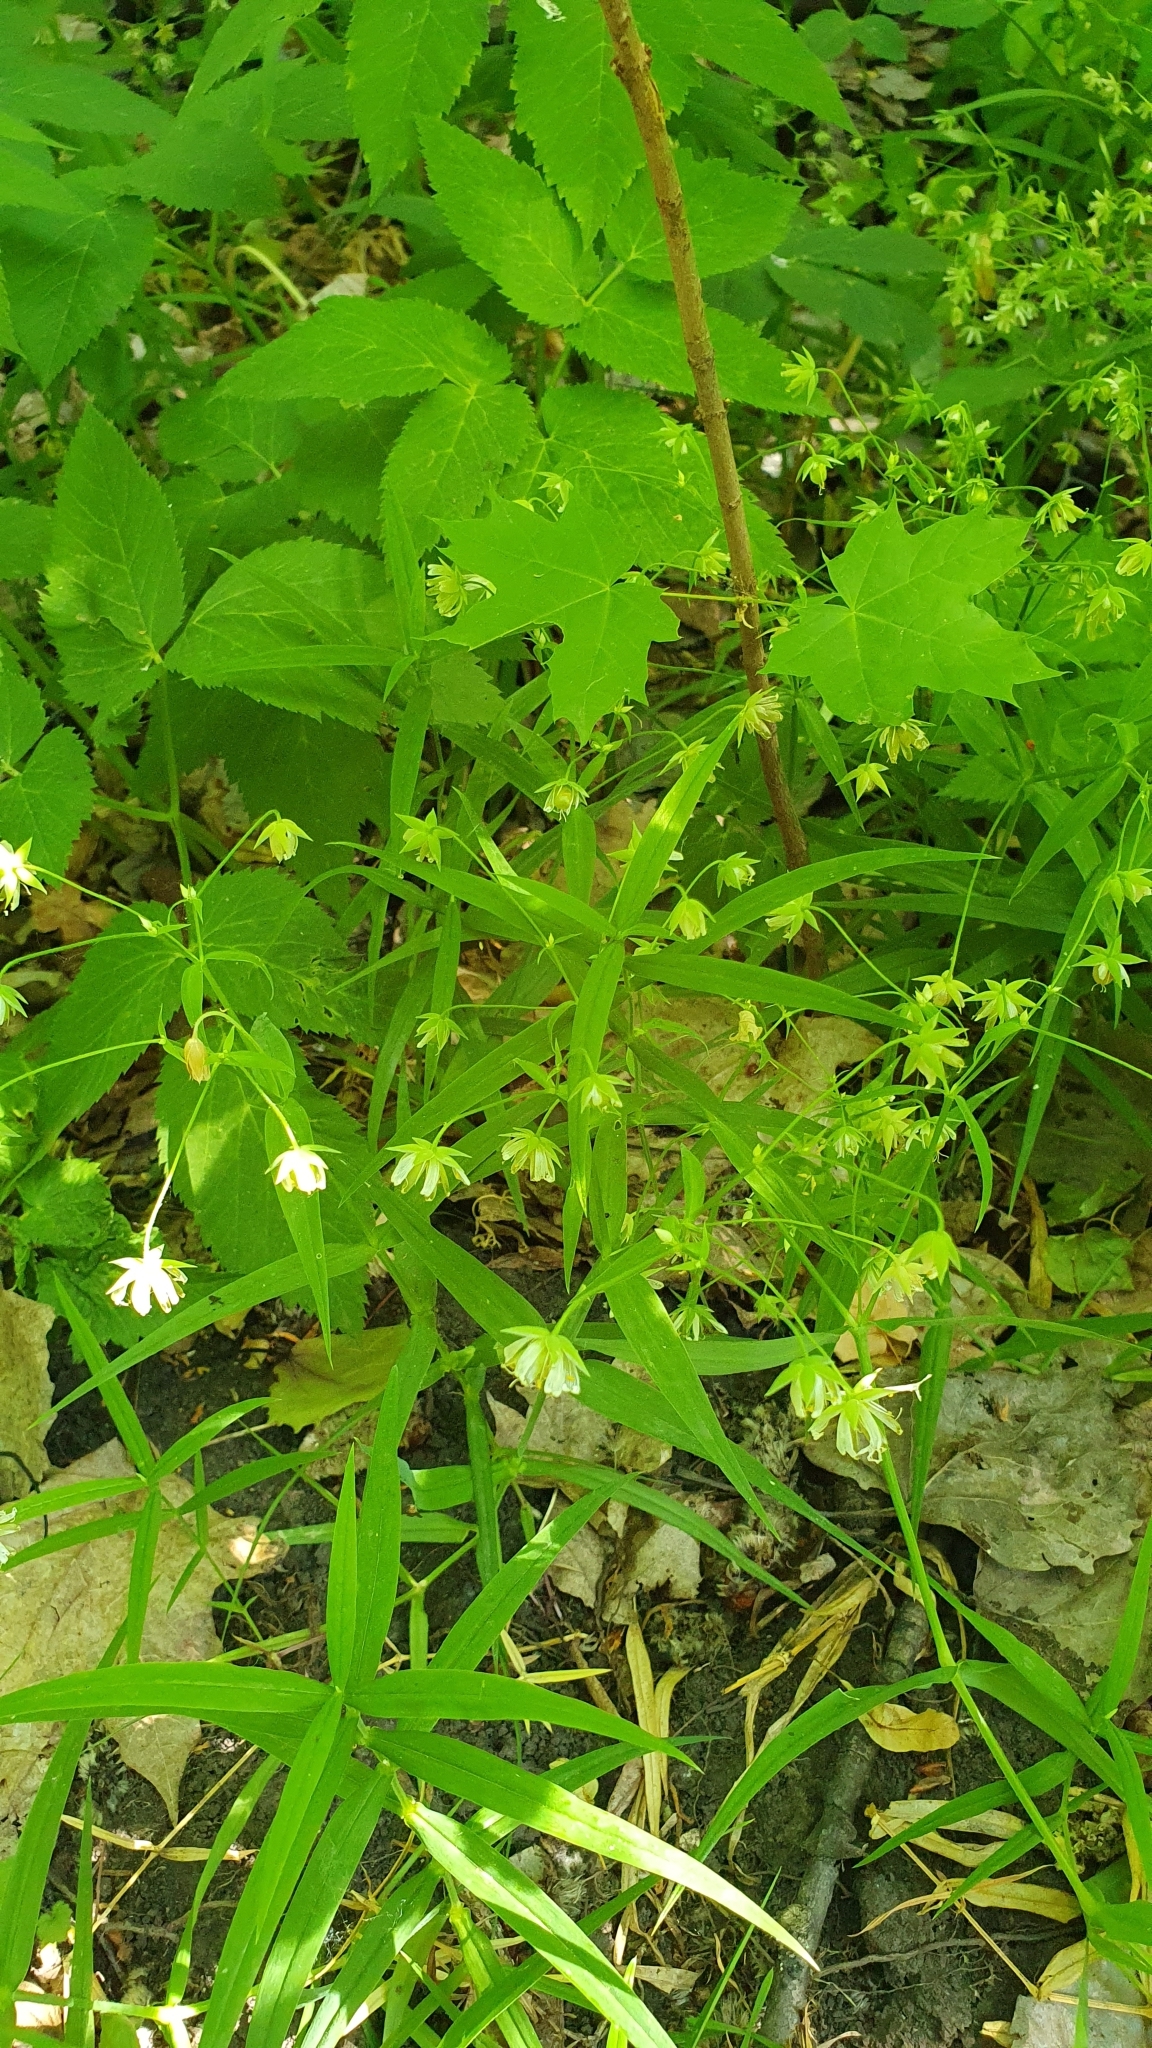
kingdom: Plantae
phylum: Tracheophyta
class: Magnoliopsida
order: Caryophyllales
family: Caryophyllaceae
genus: Rabelera
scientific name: Rabelera holostea
